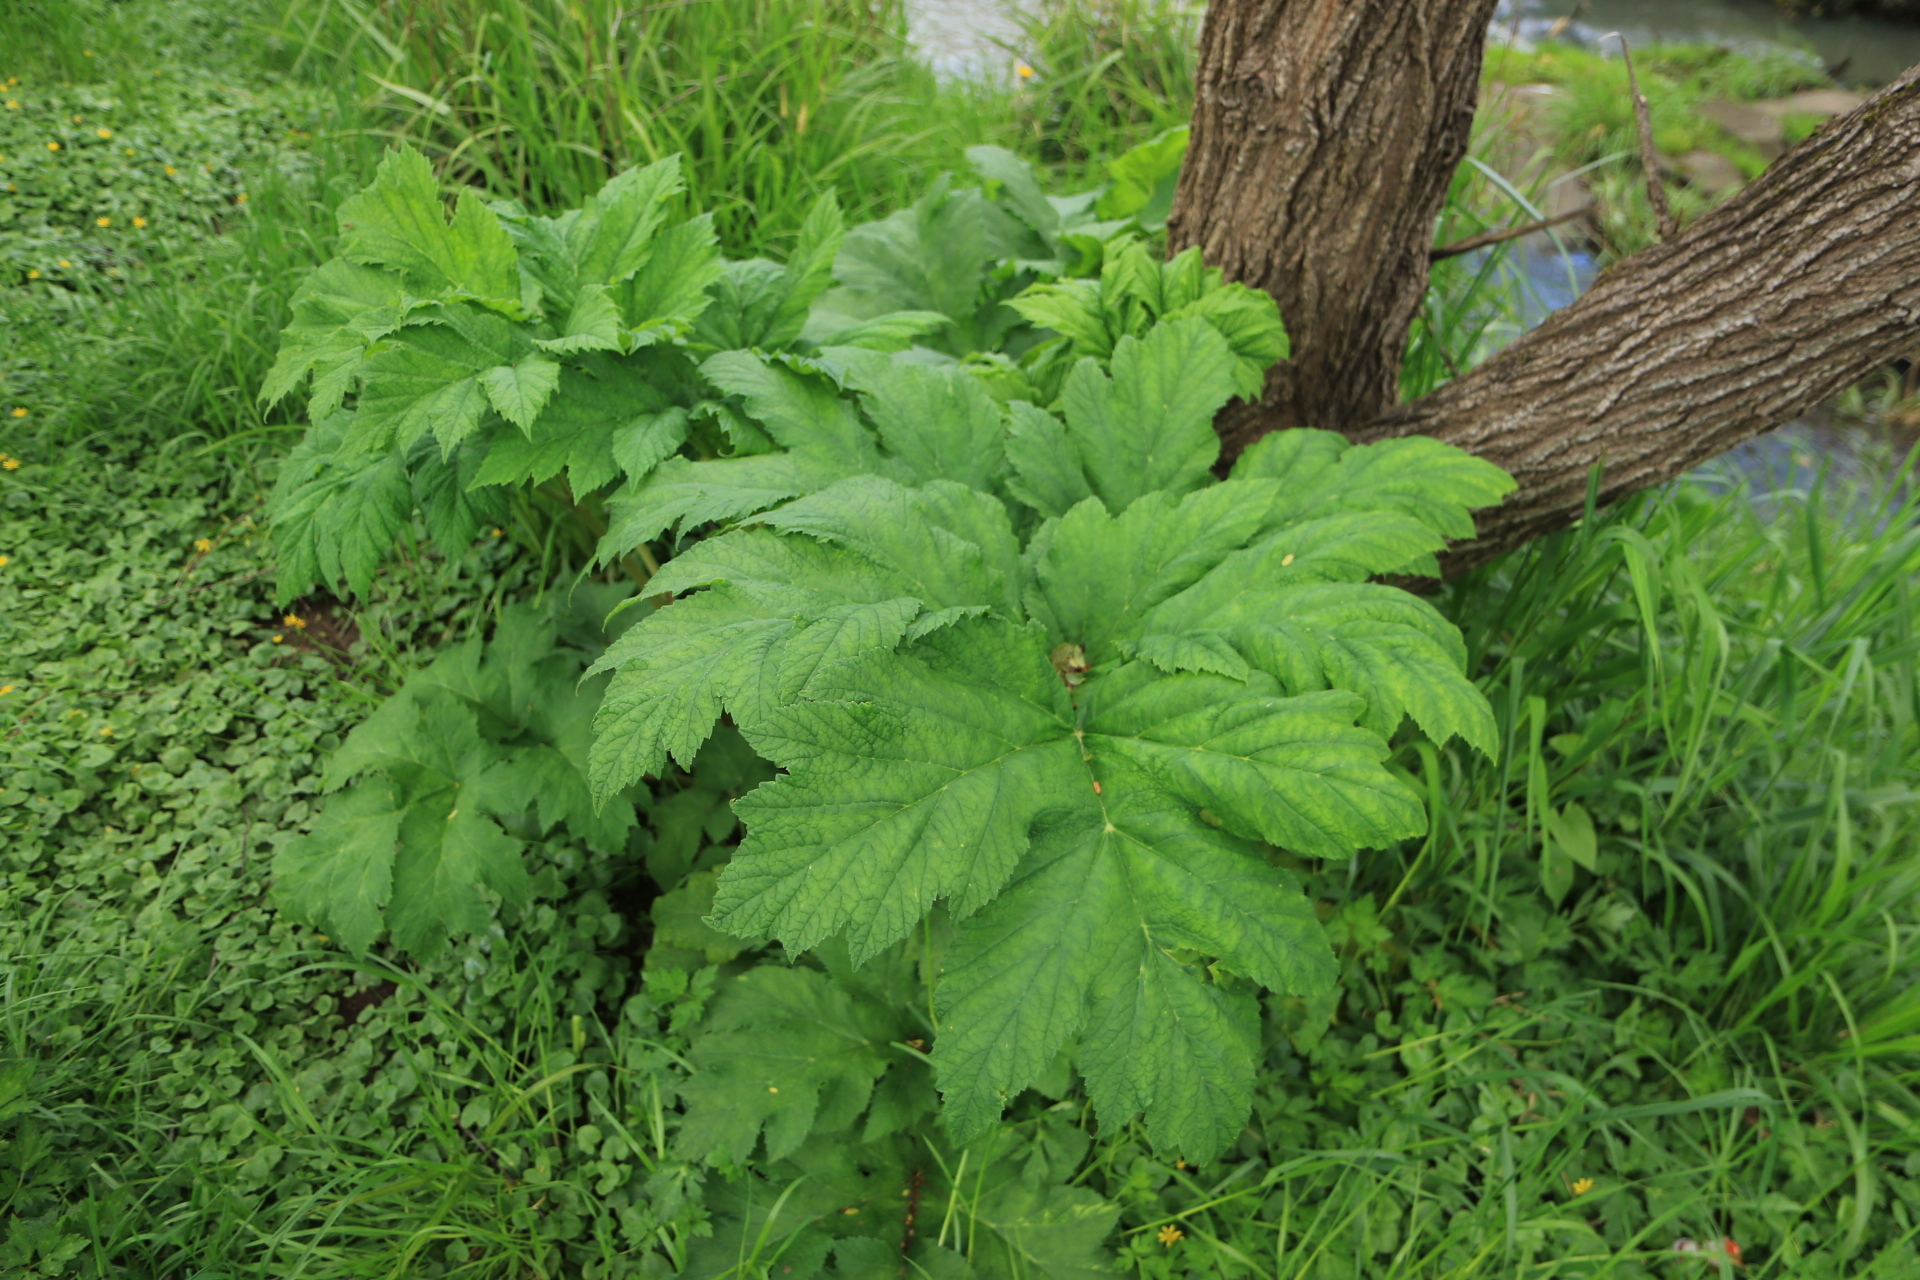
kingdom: Plantae
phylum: Tracheophyta
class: Magnoliopsida
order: Apiales
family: Apiaceae
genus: Heracleum
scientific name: Heracleum maximum
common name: American cow parsnip
